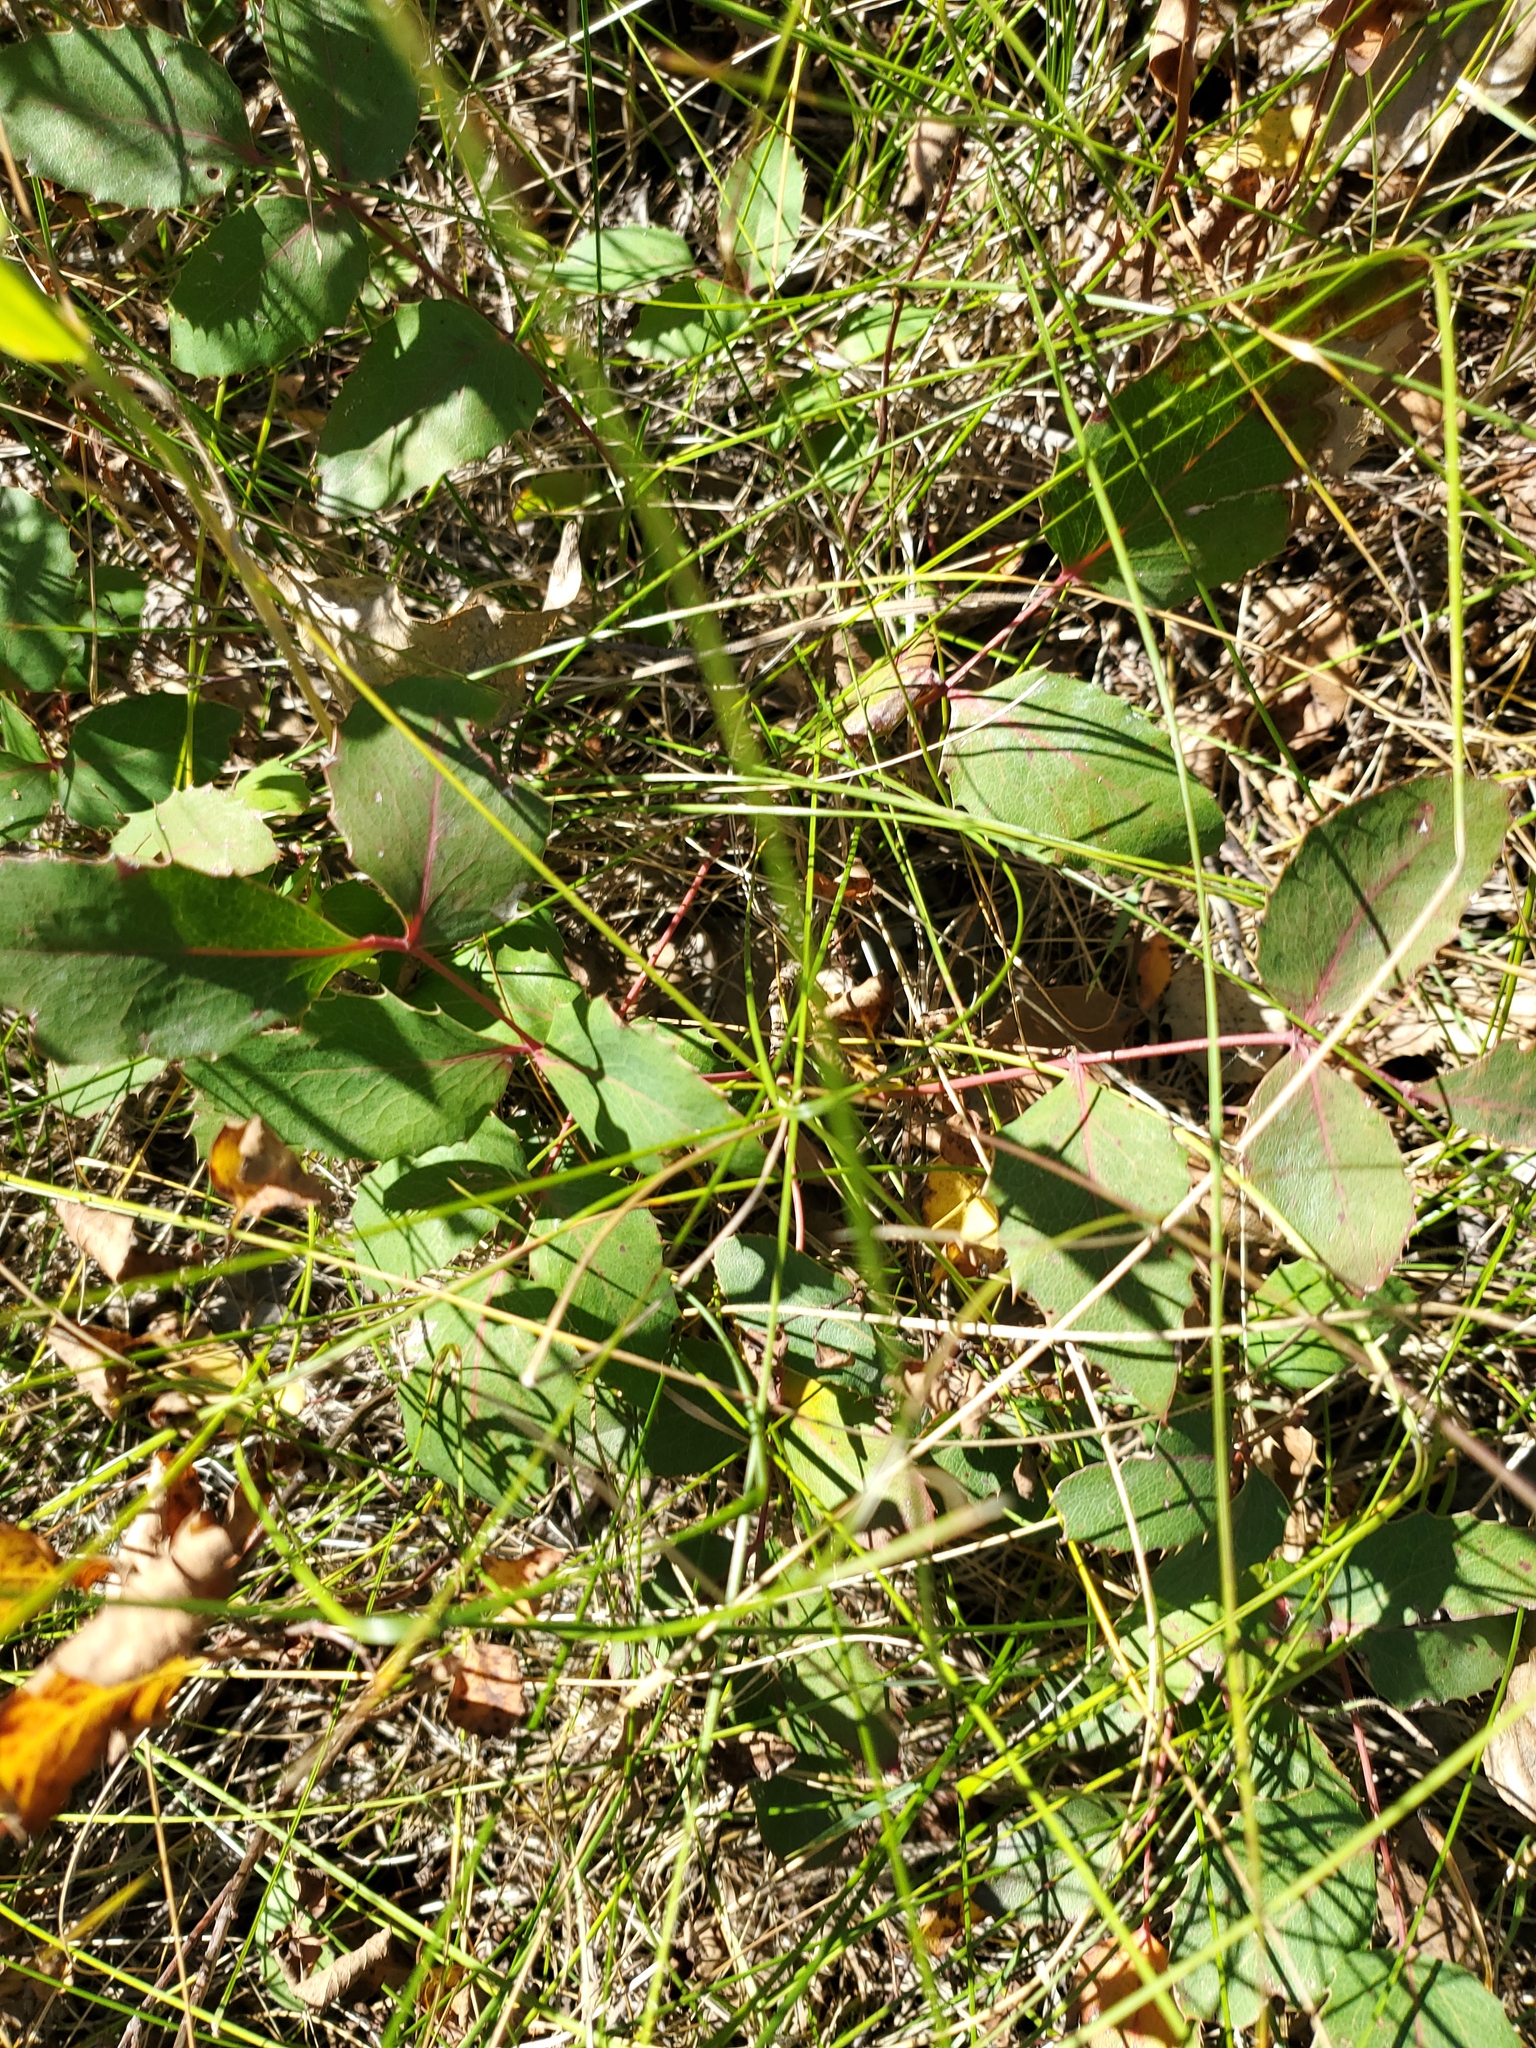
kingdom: Plantae
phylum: Tracheophyta
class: Magnoliopsida
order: Ranunculales
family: Berberidaceae
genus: Mahonia
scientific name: Mahonia repens
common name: Creeping oregon-grape
